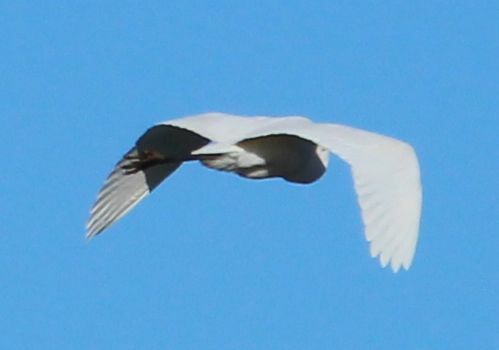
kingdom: Animalia
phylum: Chordata
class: Aves
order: Pelecaniformes
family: Ardeidae
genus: Ardea
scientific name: Ardea alba
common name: Great egret
